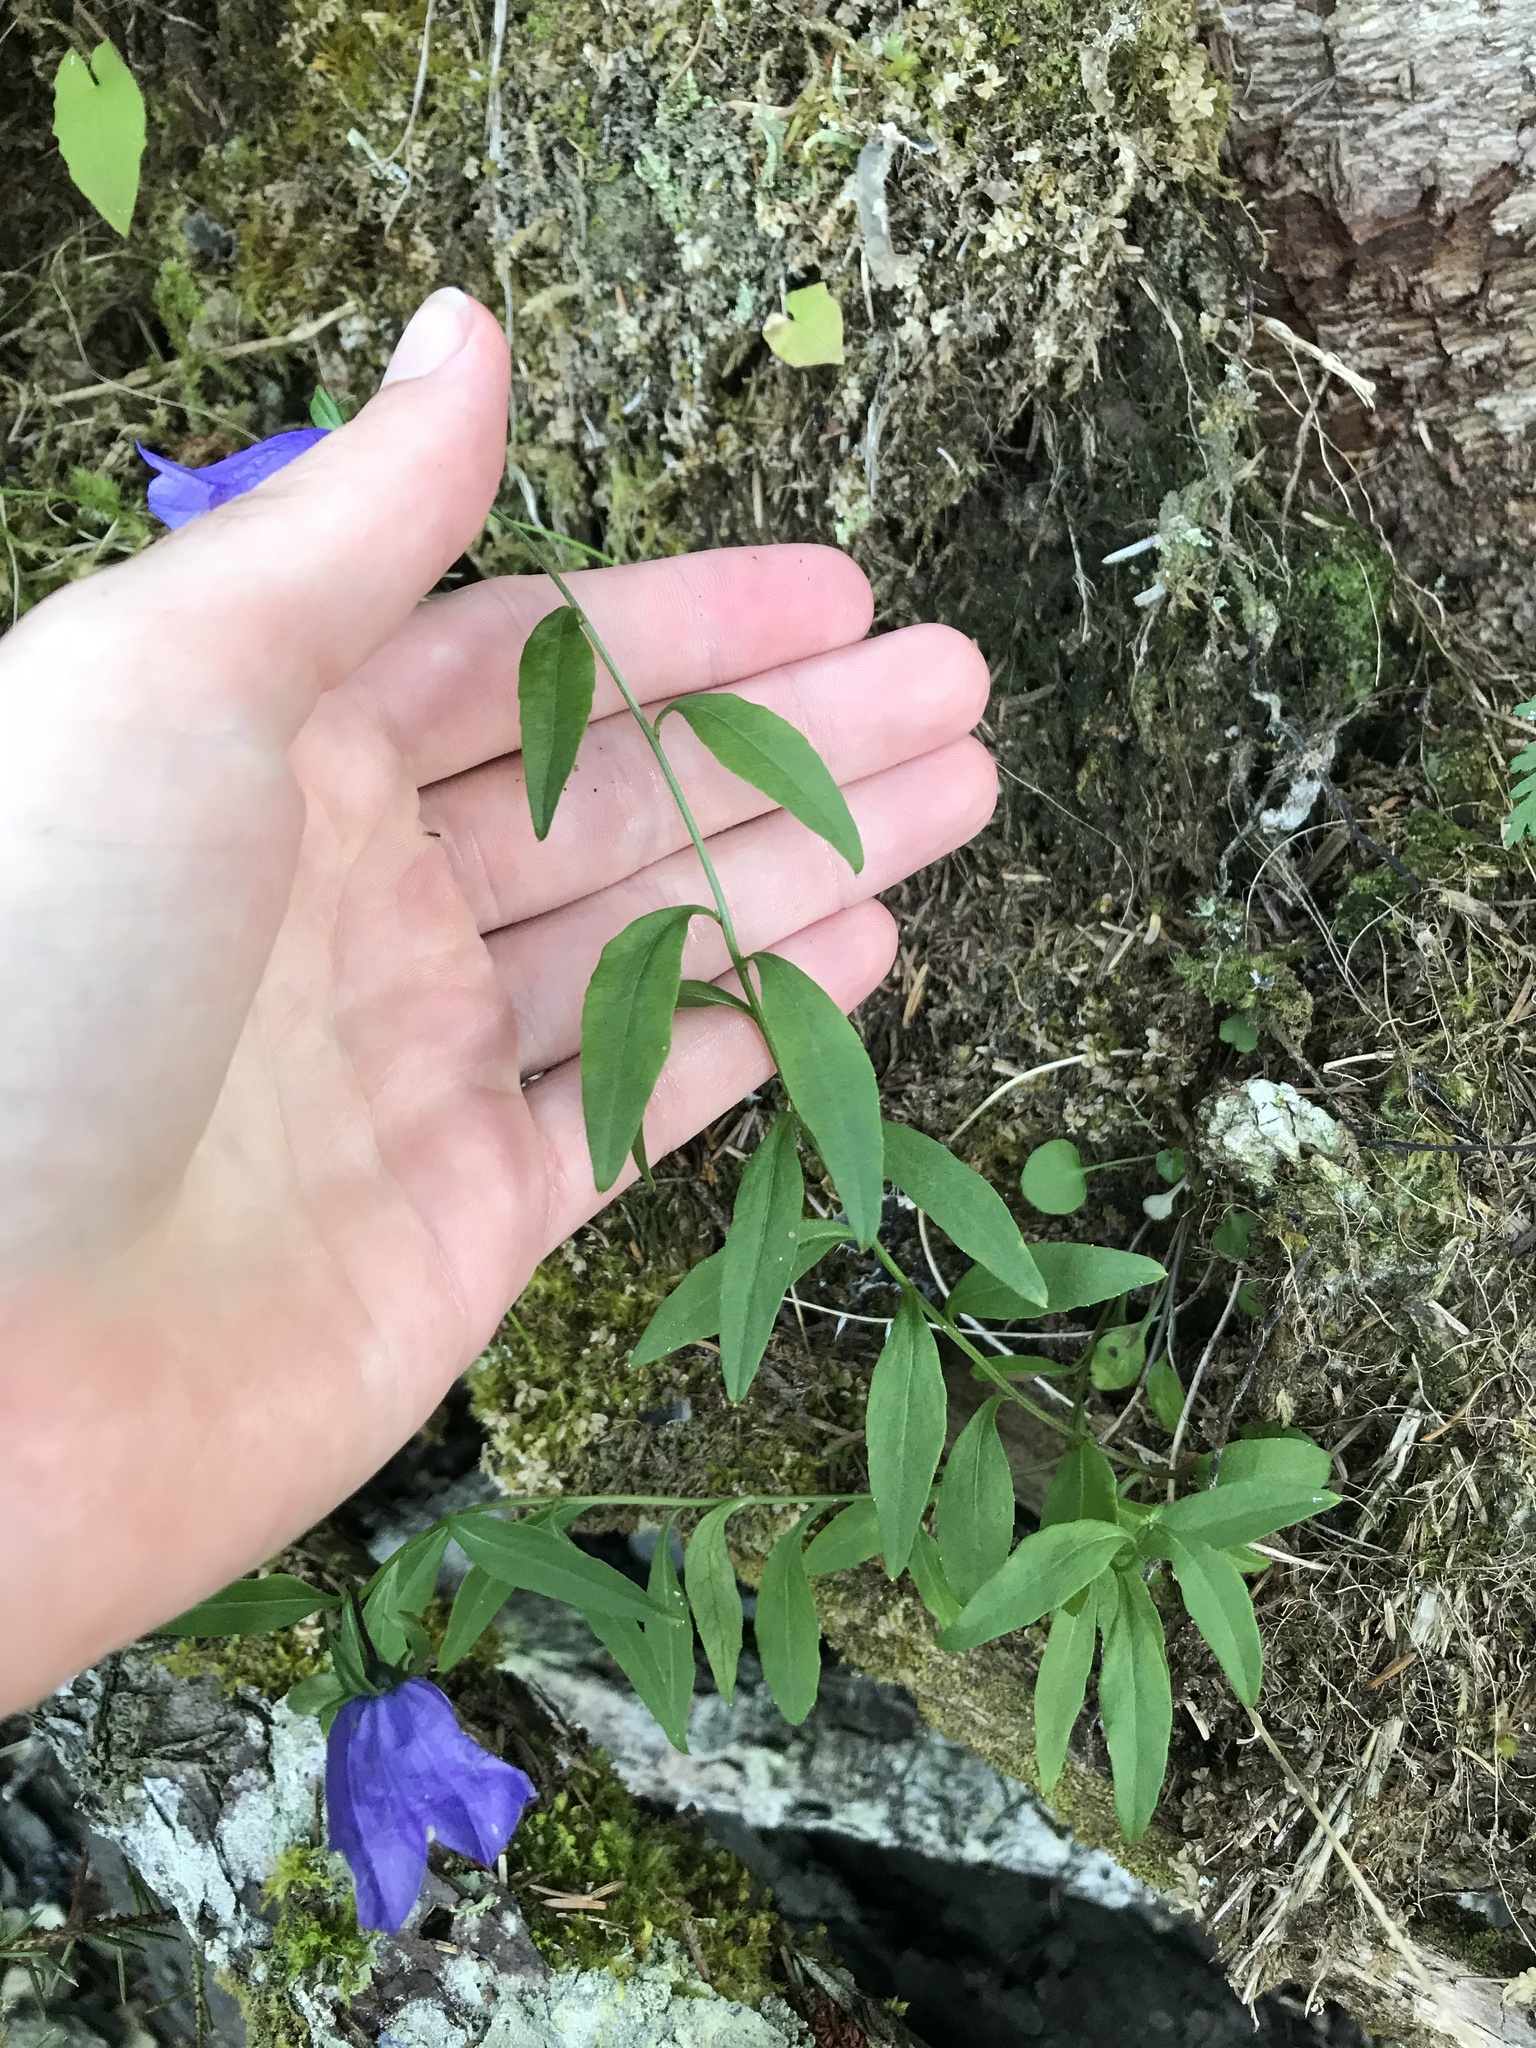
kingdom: Plantae
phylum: Tracheophyta
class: Magnoliopsida
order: Asterales
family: Campanulaceae
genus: Campanula
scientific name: Campanula alaskana
